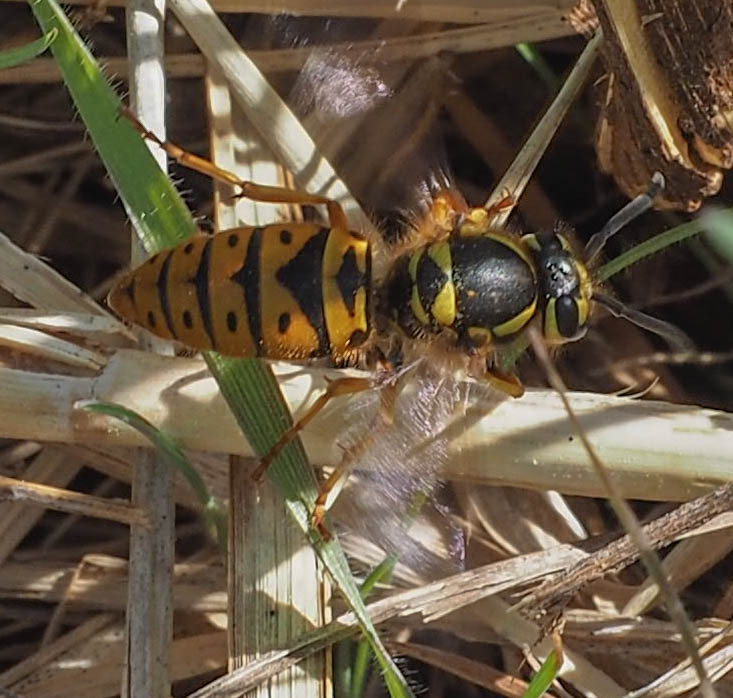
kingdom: Animalia
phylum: Arthropoda
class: Insecta
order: Hymenoptera
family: Vespidae
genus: Vespula
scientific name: Vespula maculifrons
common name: Eastern yellowjacket
